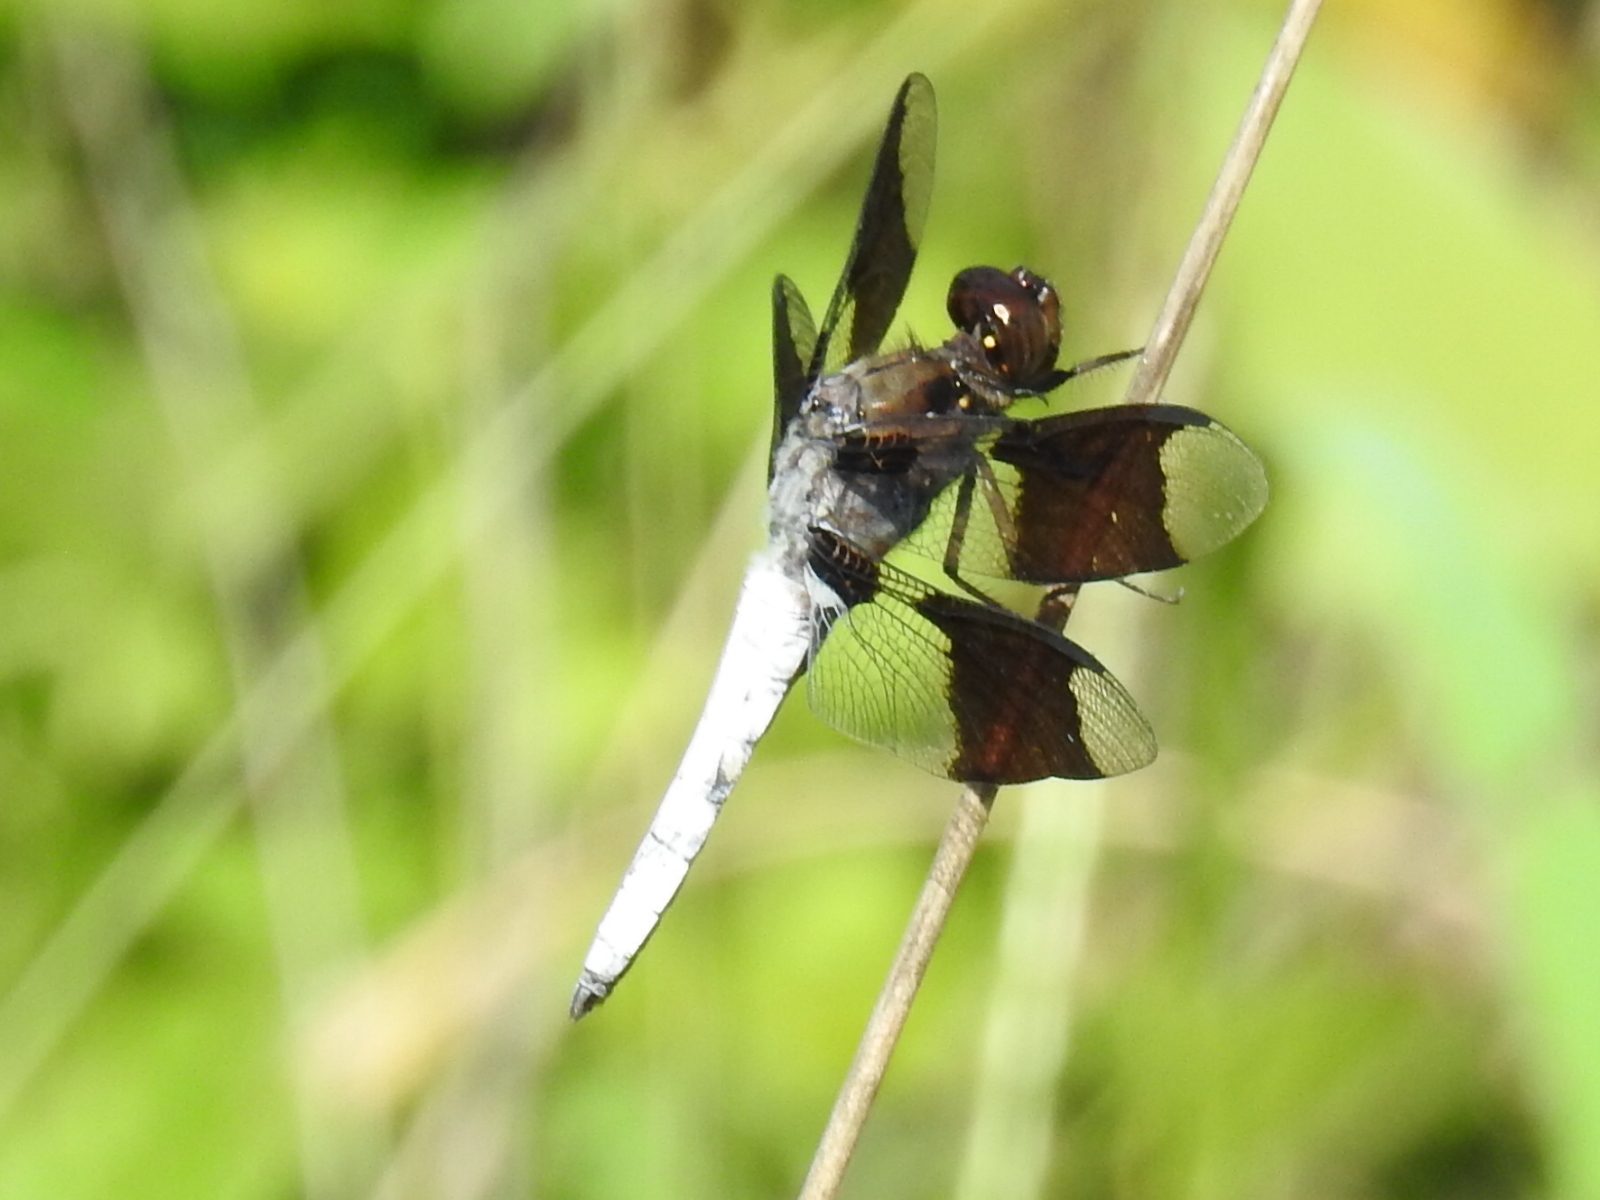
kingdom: Animalia
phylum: Arthropoda
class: Insecta
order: Odonata
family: Libellulidae
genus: Plathemis
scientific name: Plathemis lydia
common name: Common whitetail
